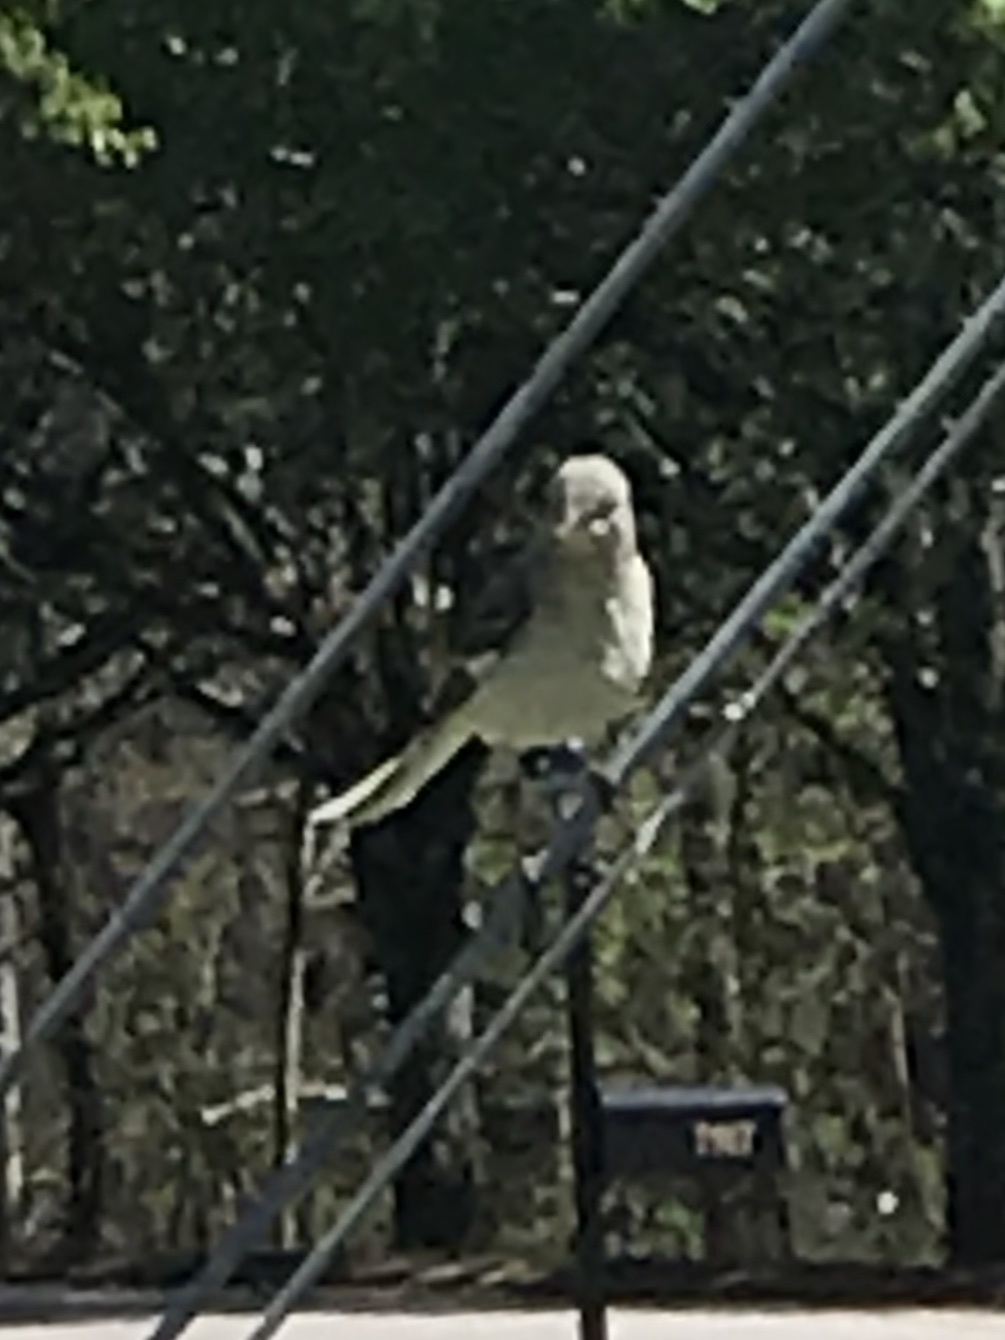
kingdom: Animalia
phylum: Chordata
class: Aves
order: Passeriformes
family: Mimidae
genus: Mimus
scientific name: Mimus polyglottos
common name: Northern mockingbird
